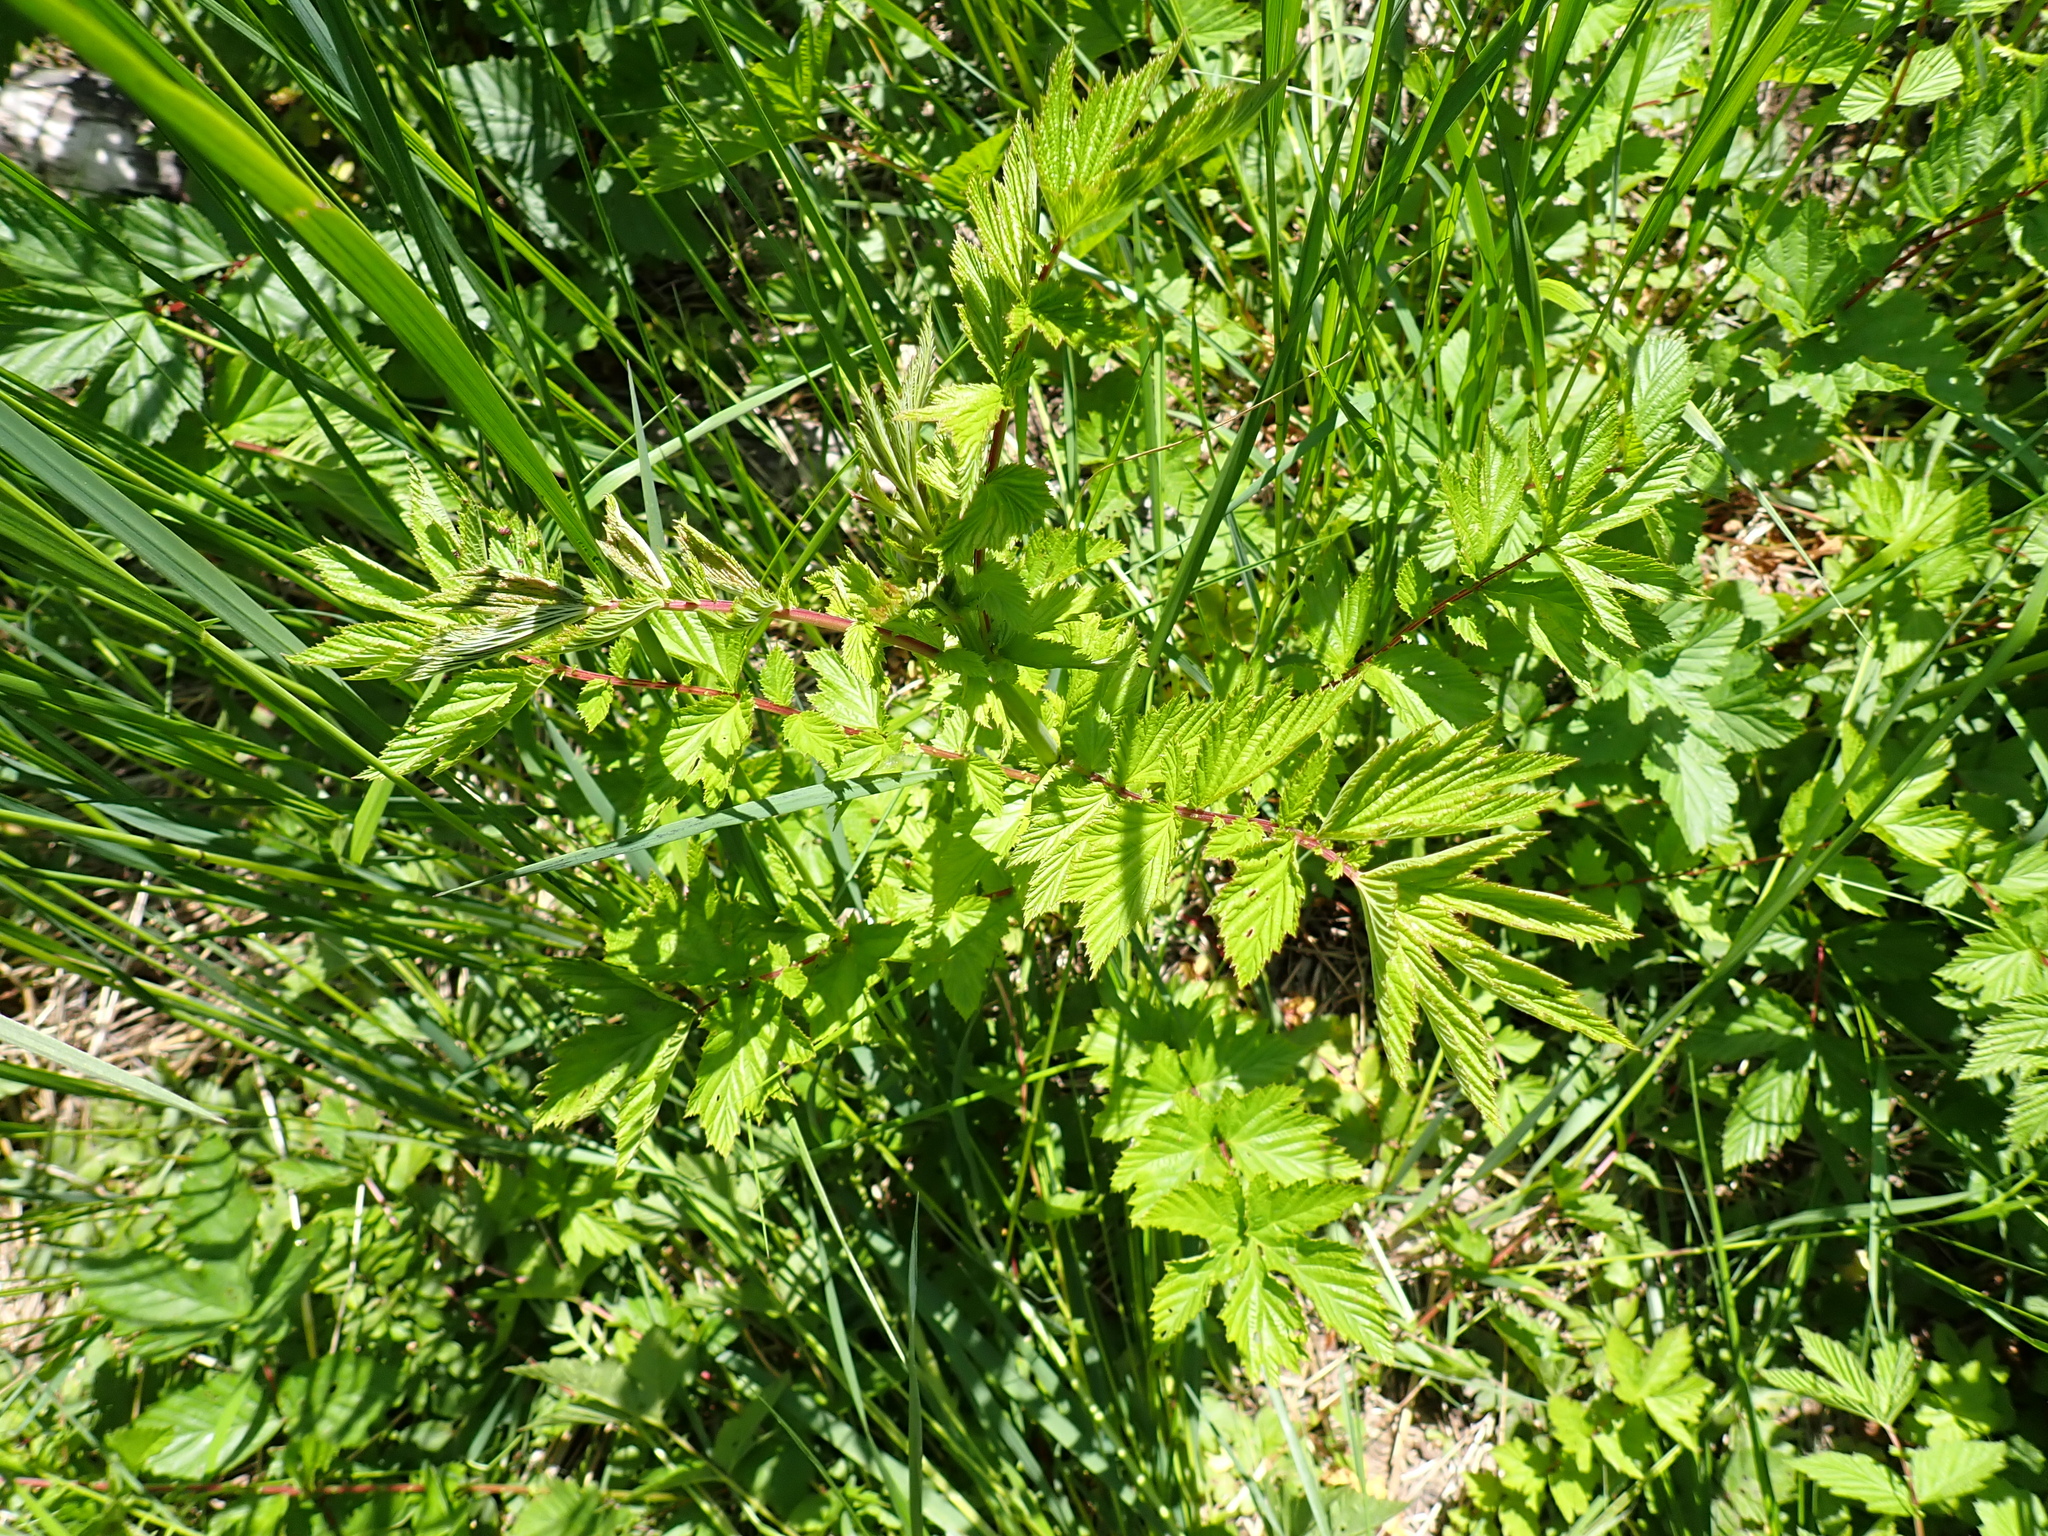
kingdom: Plantae
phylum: Tracheophyta
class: Magnoliopsida
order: Rosales
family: Rosaceae
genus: Filipendula
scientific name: Filipendula ulmaria
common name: Meadowsweet
